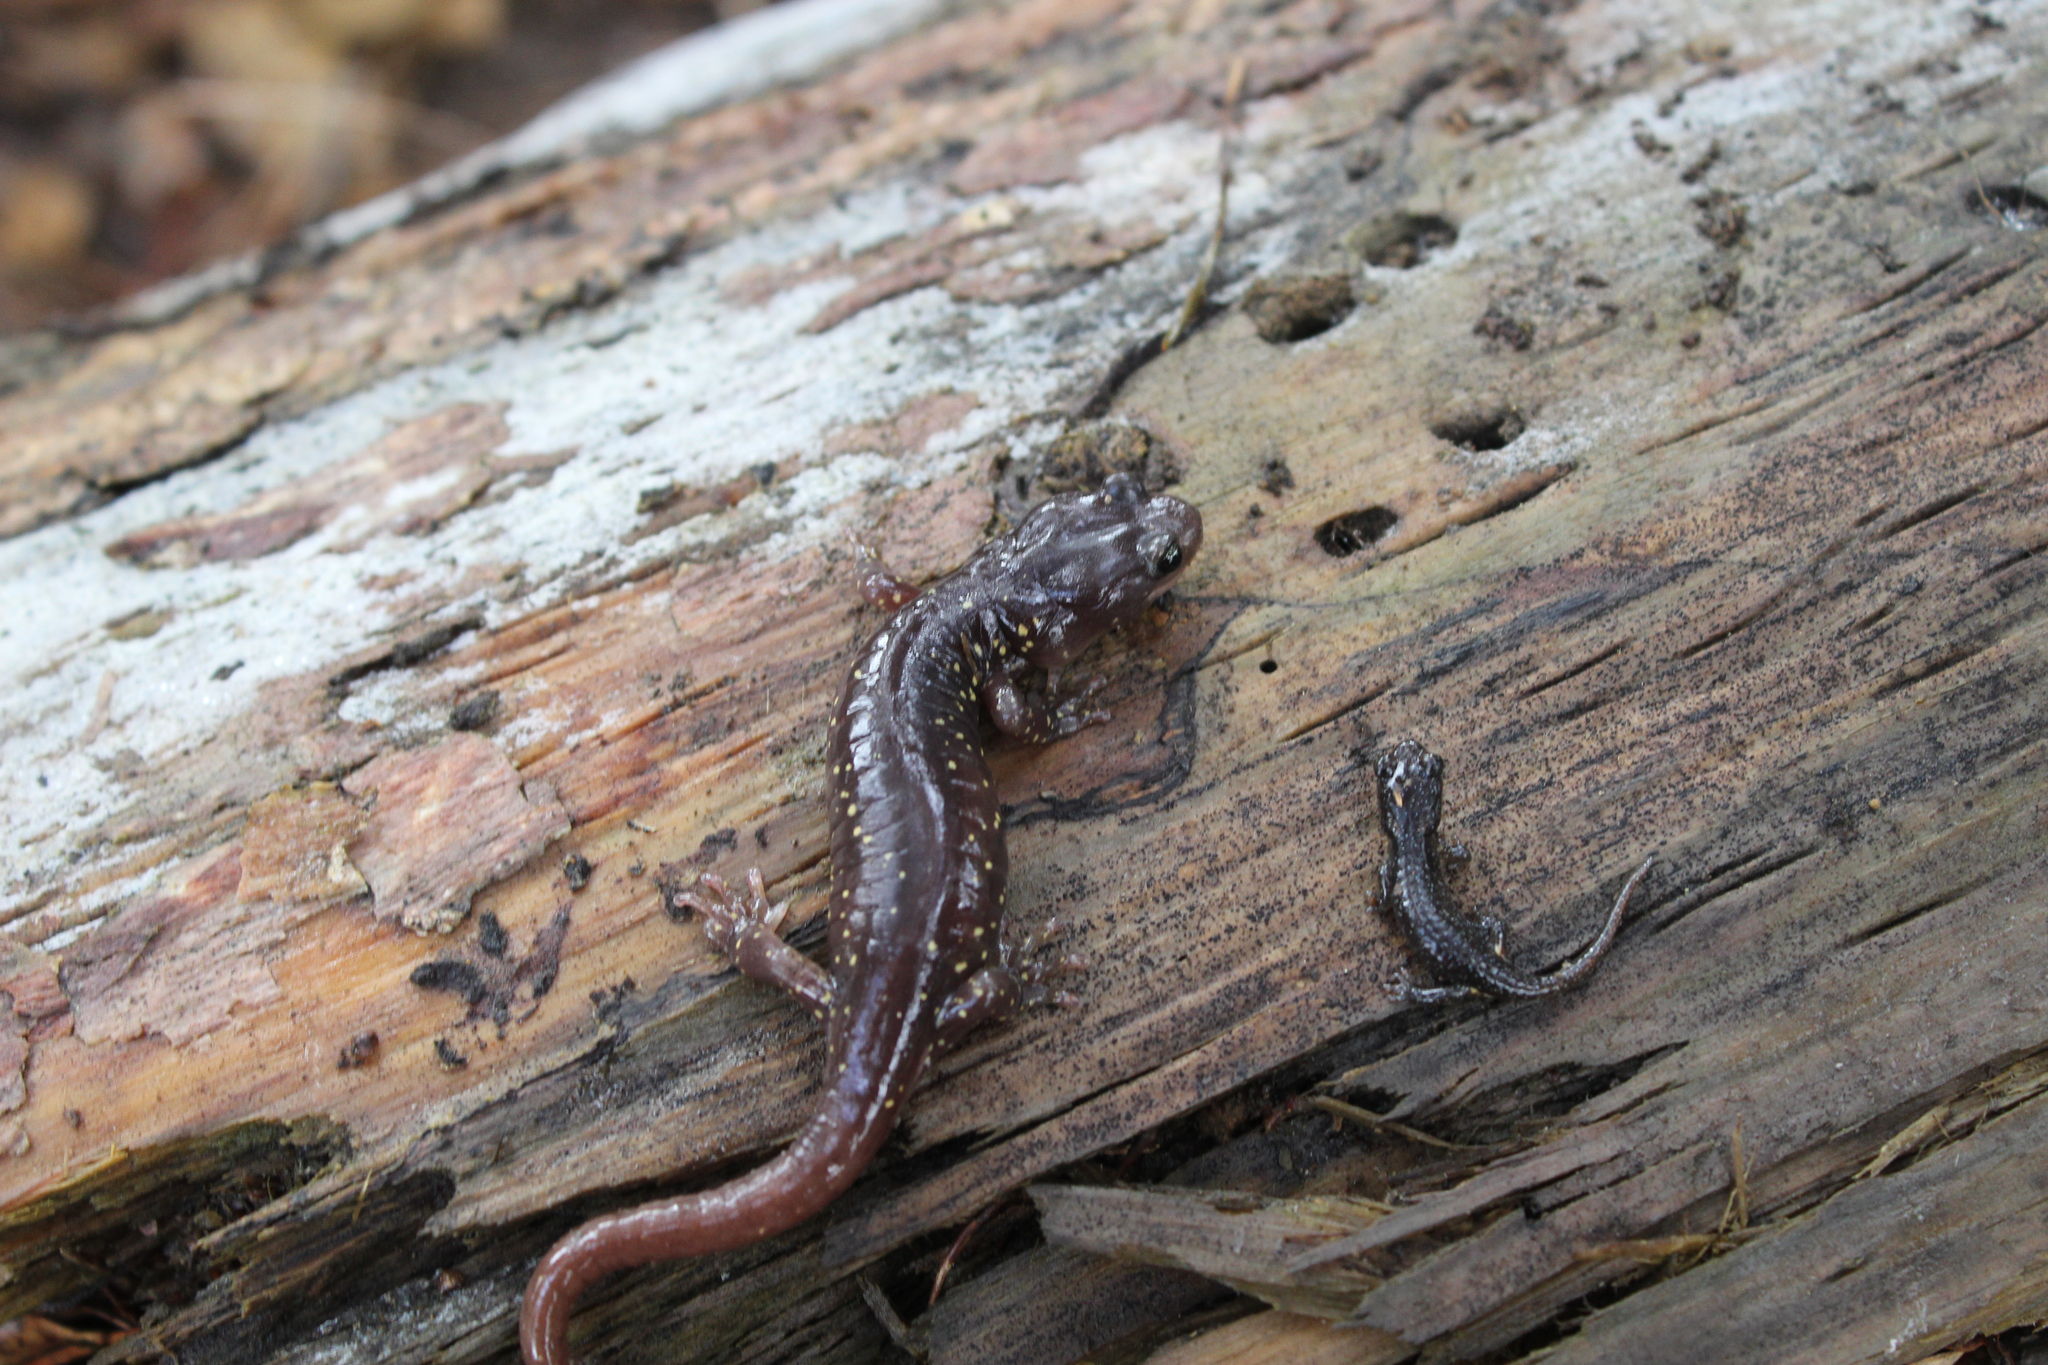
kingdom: Animalia
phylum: Chordata
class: Amphibia
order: Caudata
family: Plethodontidae
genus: Aneides
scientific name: Aneides lugubris
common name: Arboreal salamander
